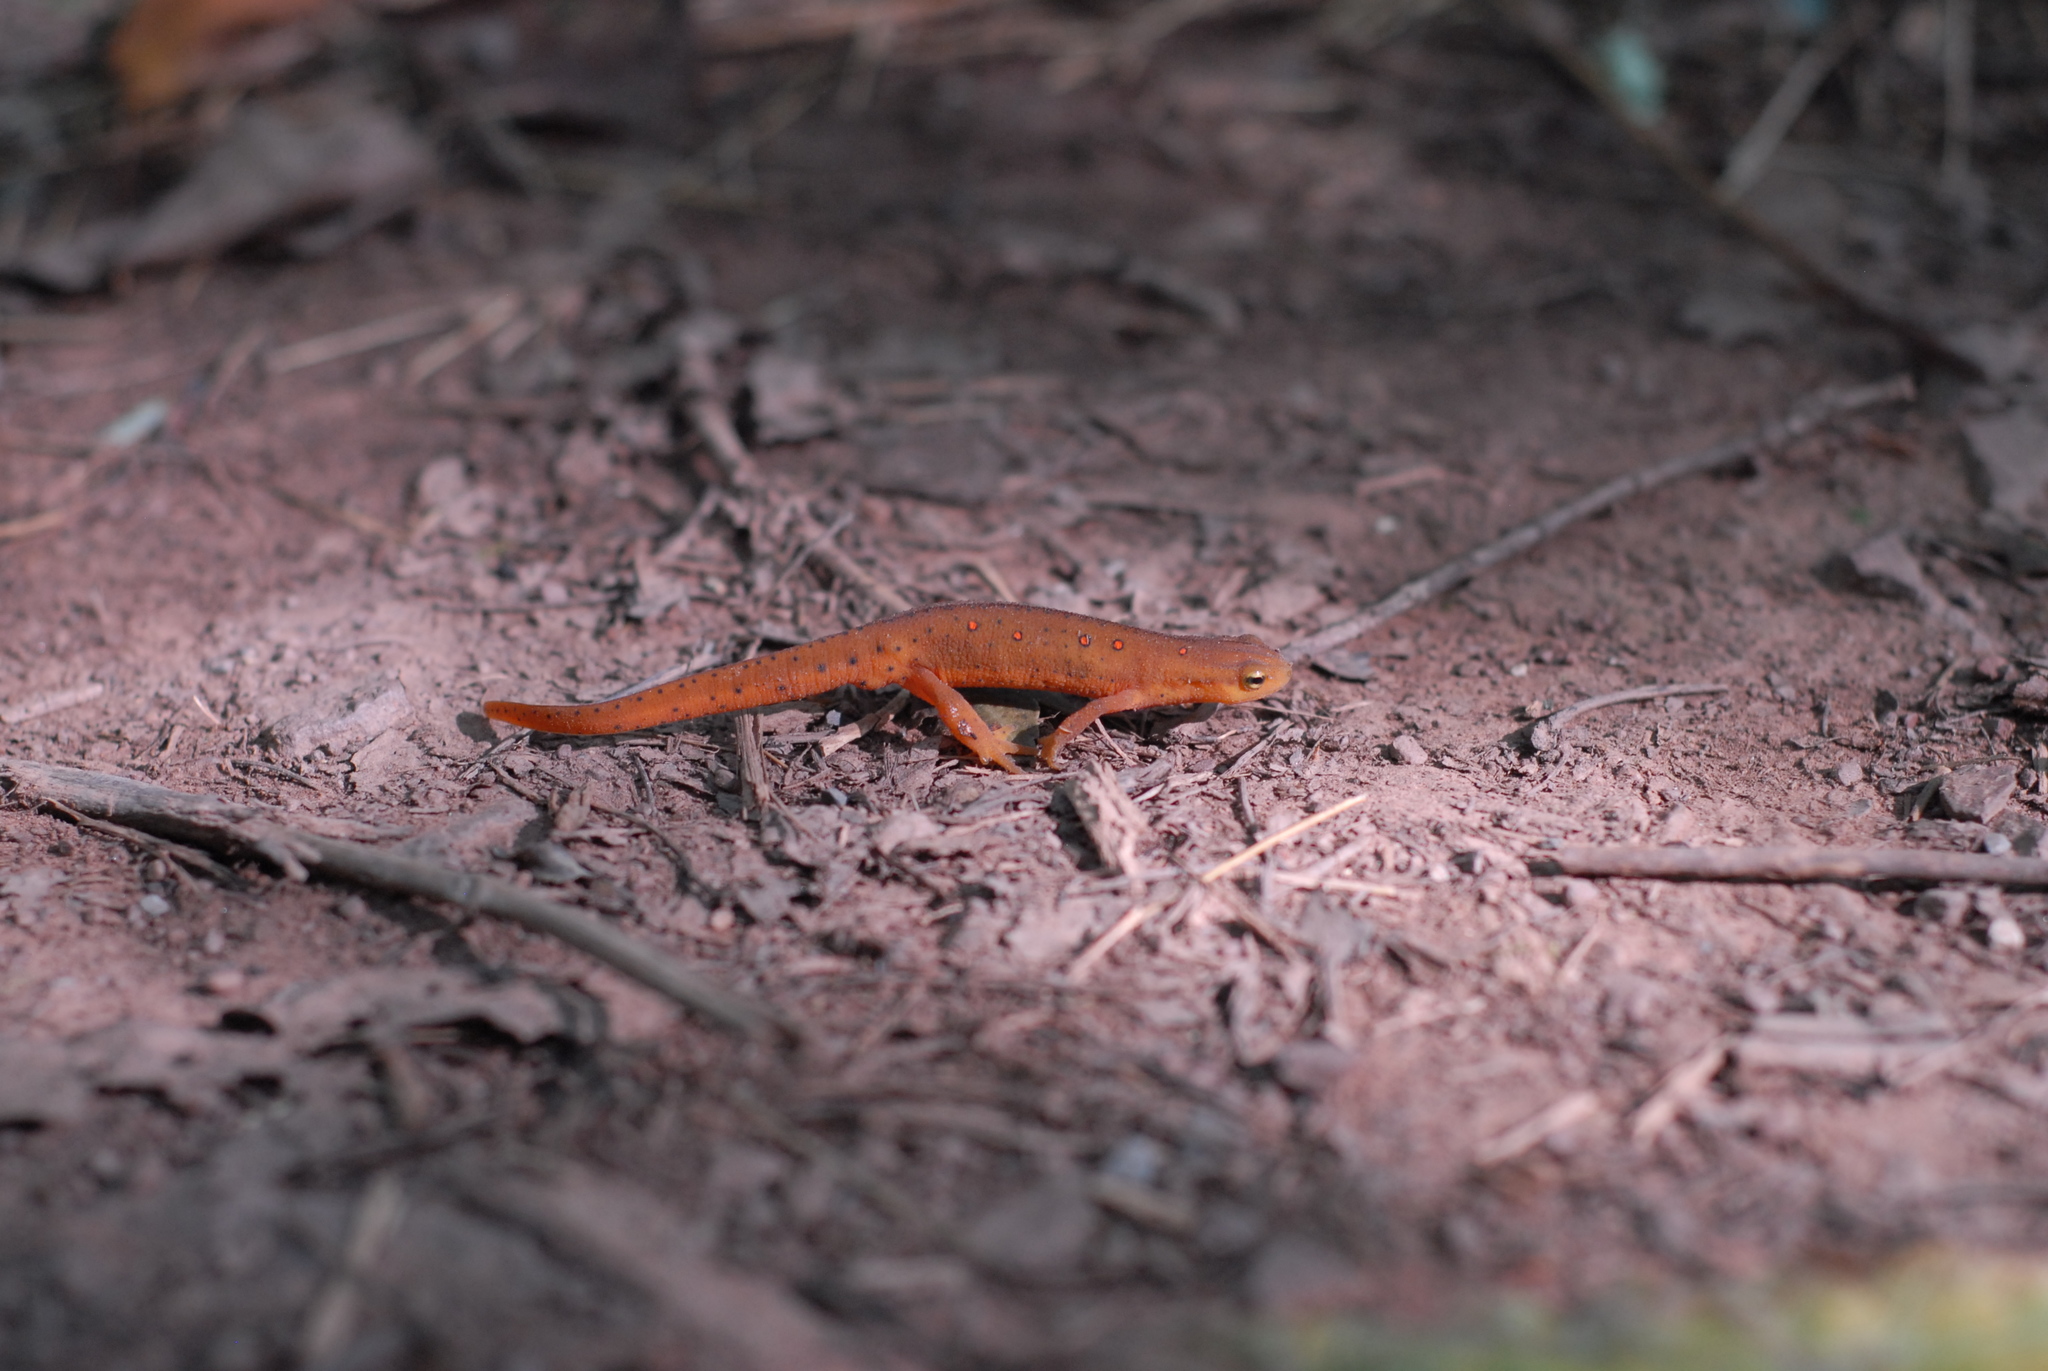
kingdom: Animalia
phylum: Chordata
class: Amphibia
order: Caudata
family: Salamandridae
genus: Notophthalmus
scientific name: Notophthalmus viridescens
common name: Eastern newt
